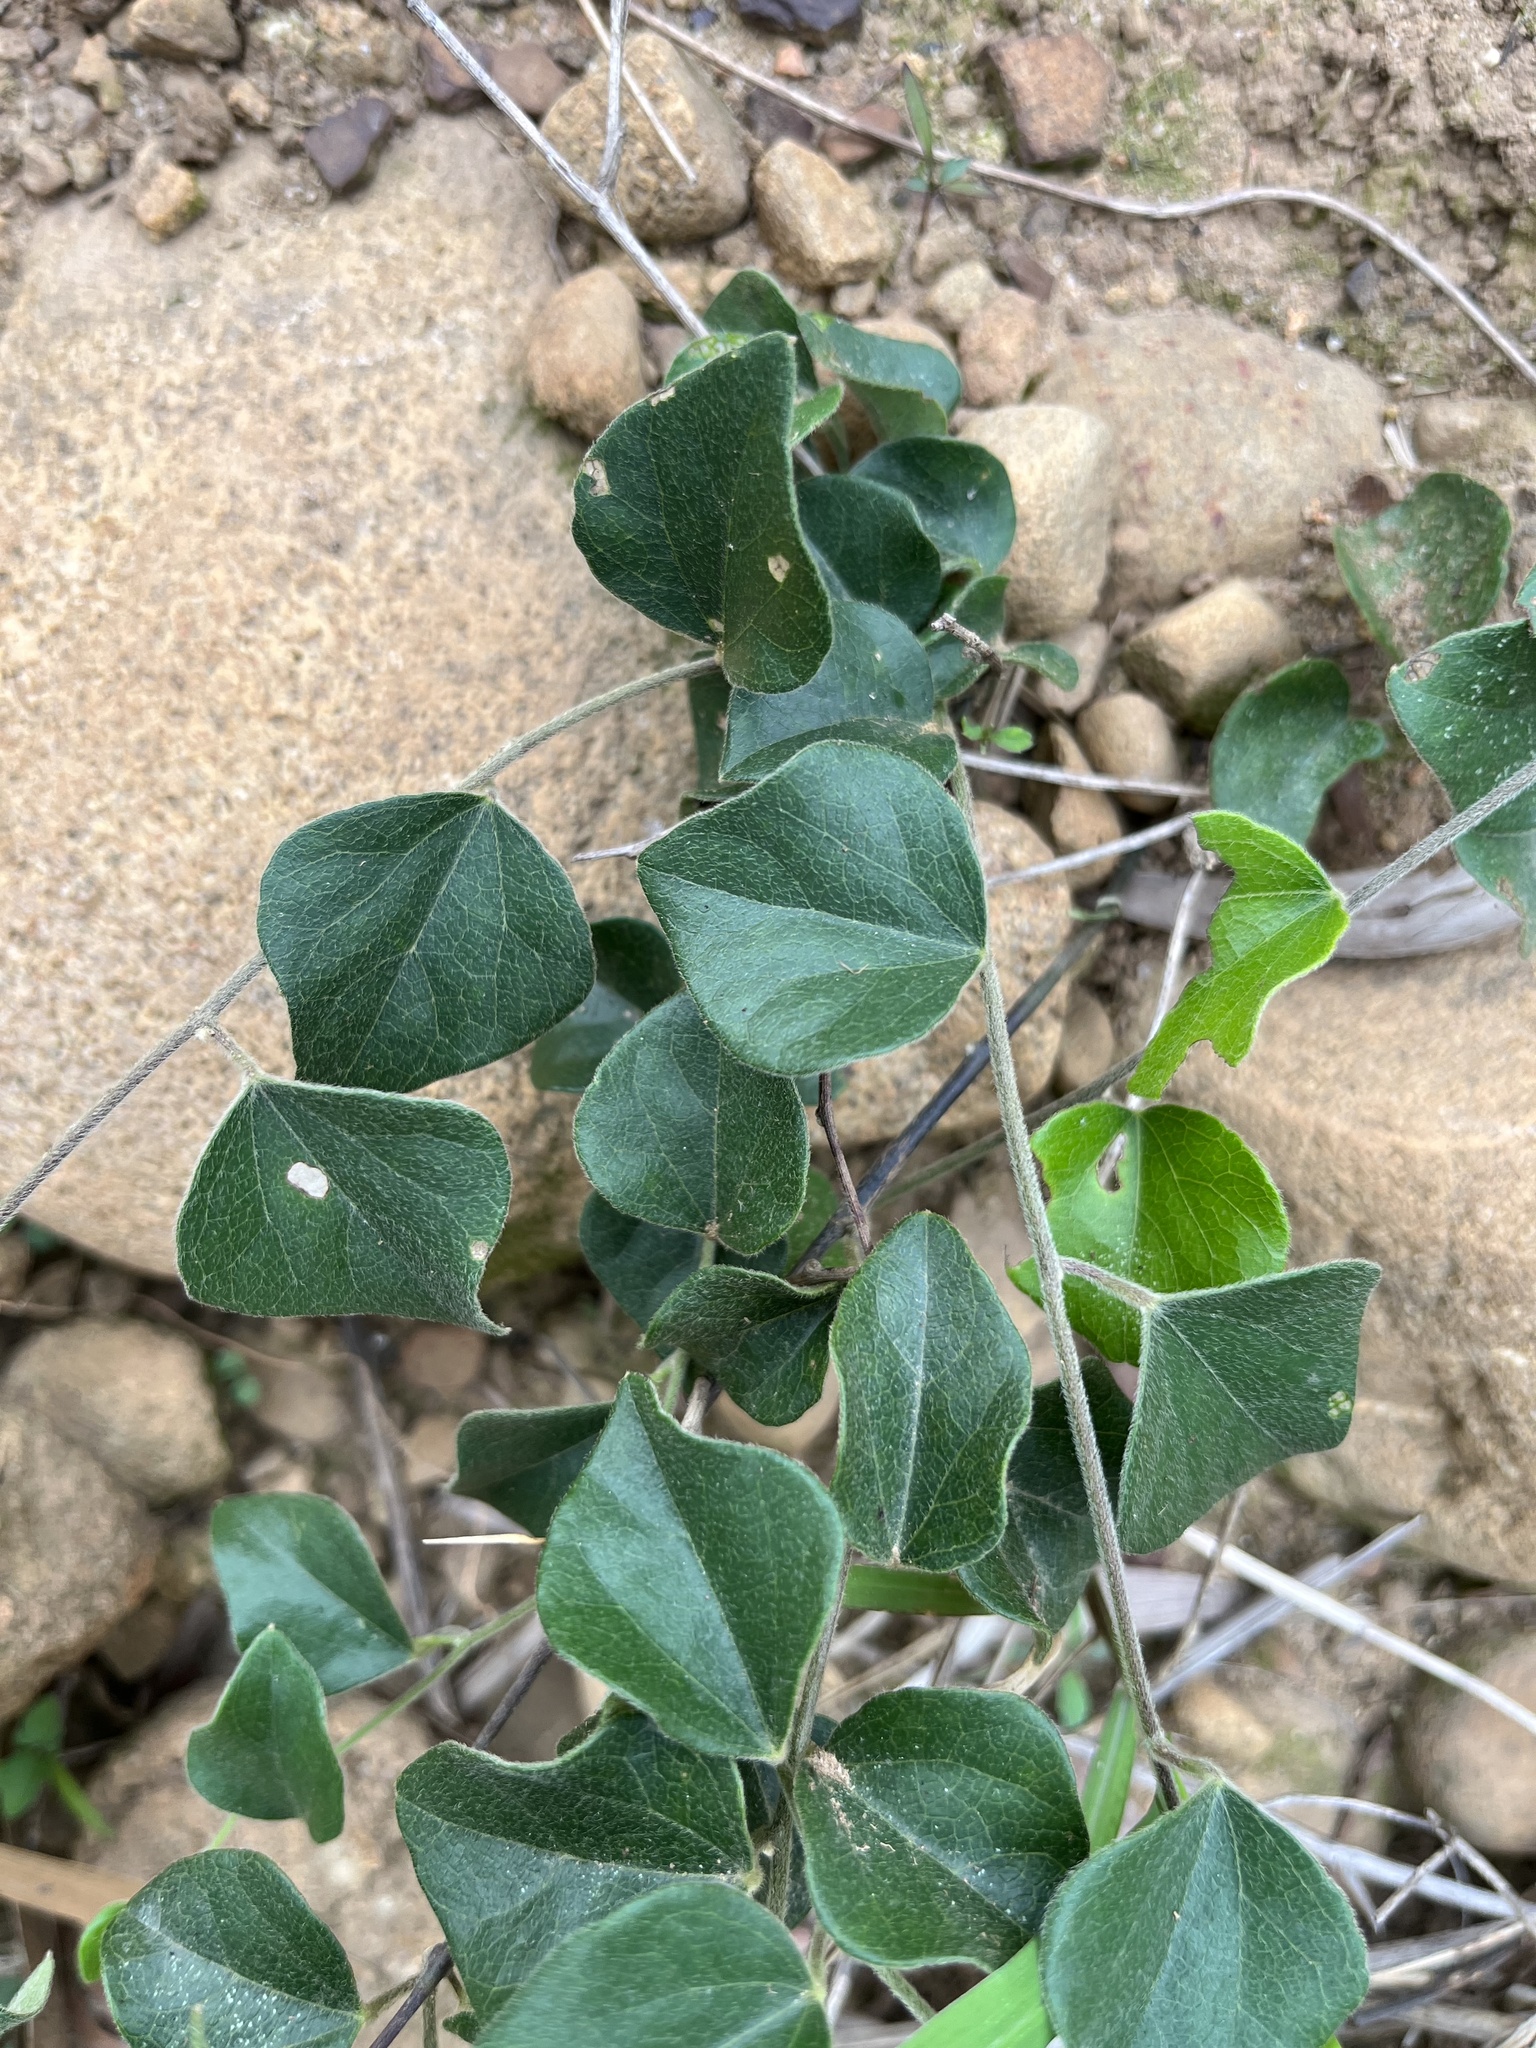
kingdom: Plantae
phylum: Tracheophyta
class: Magnoliopsida
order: Ranunculales
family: Menispermaceae
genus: Cocculus
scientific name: Cocculus orbiculatus
